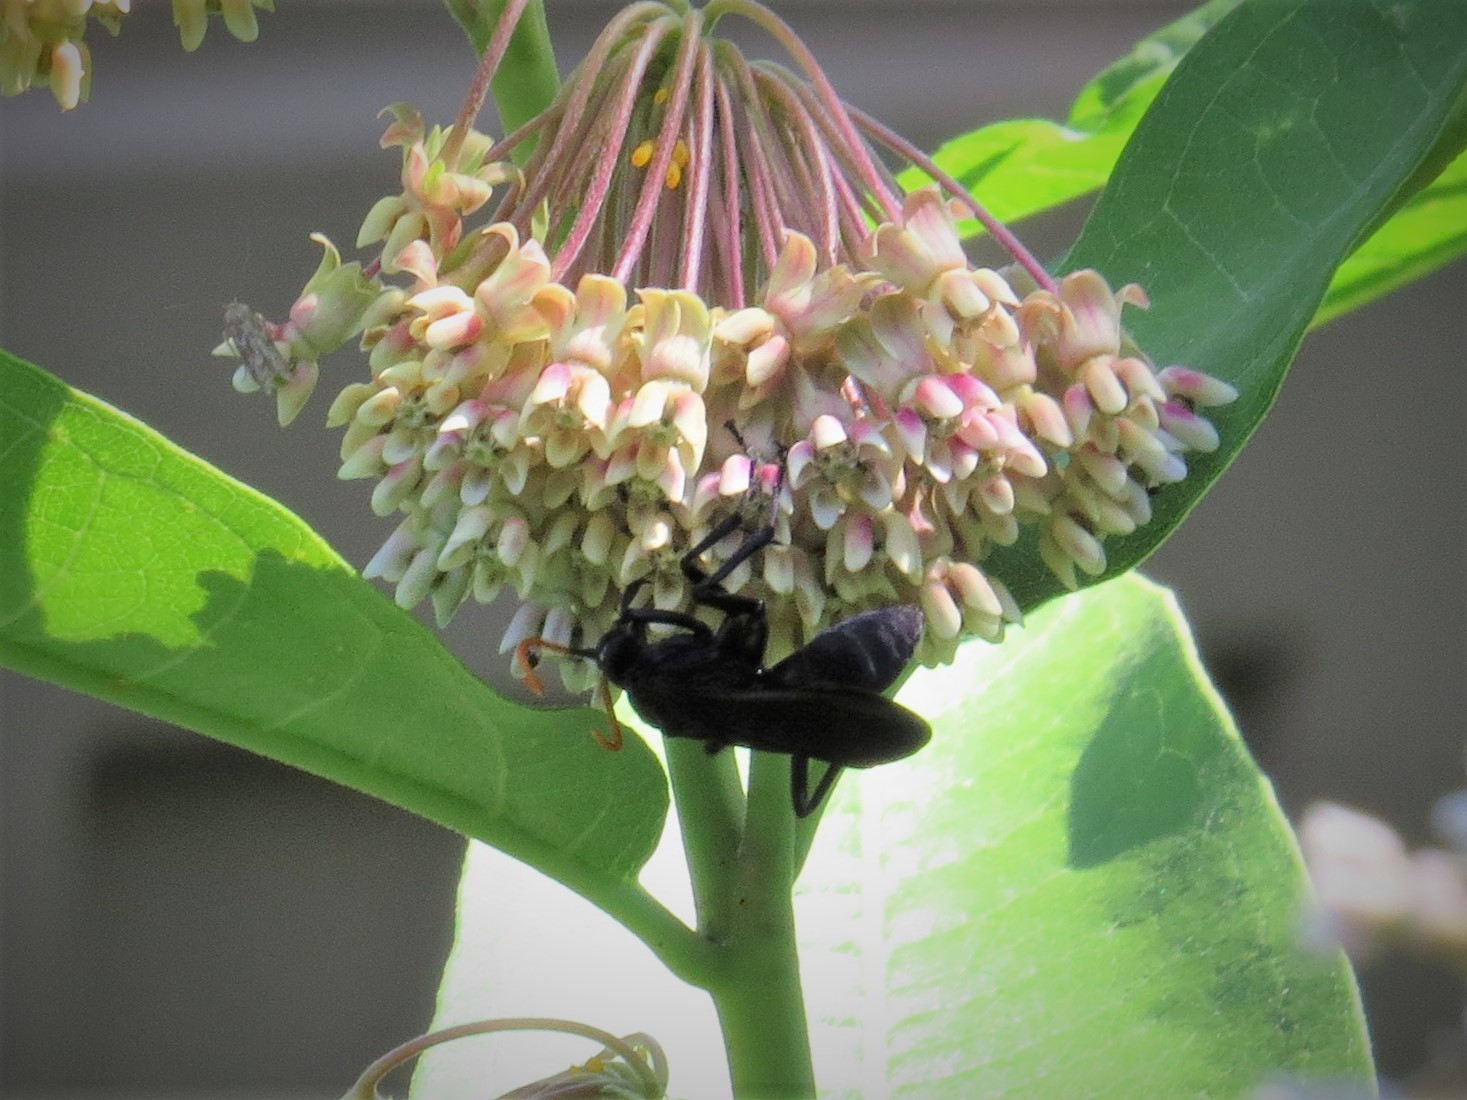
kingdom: Animalia
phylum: Arthropoda
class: Insecta
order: Hymenoptera
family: Pompilidae
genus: Pepsis
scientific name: Pepsis menechma
